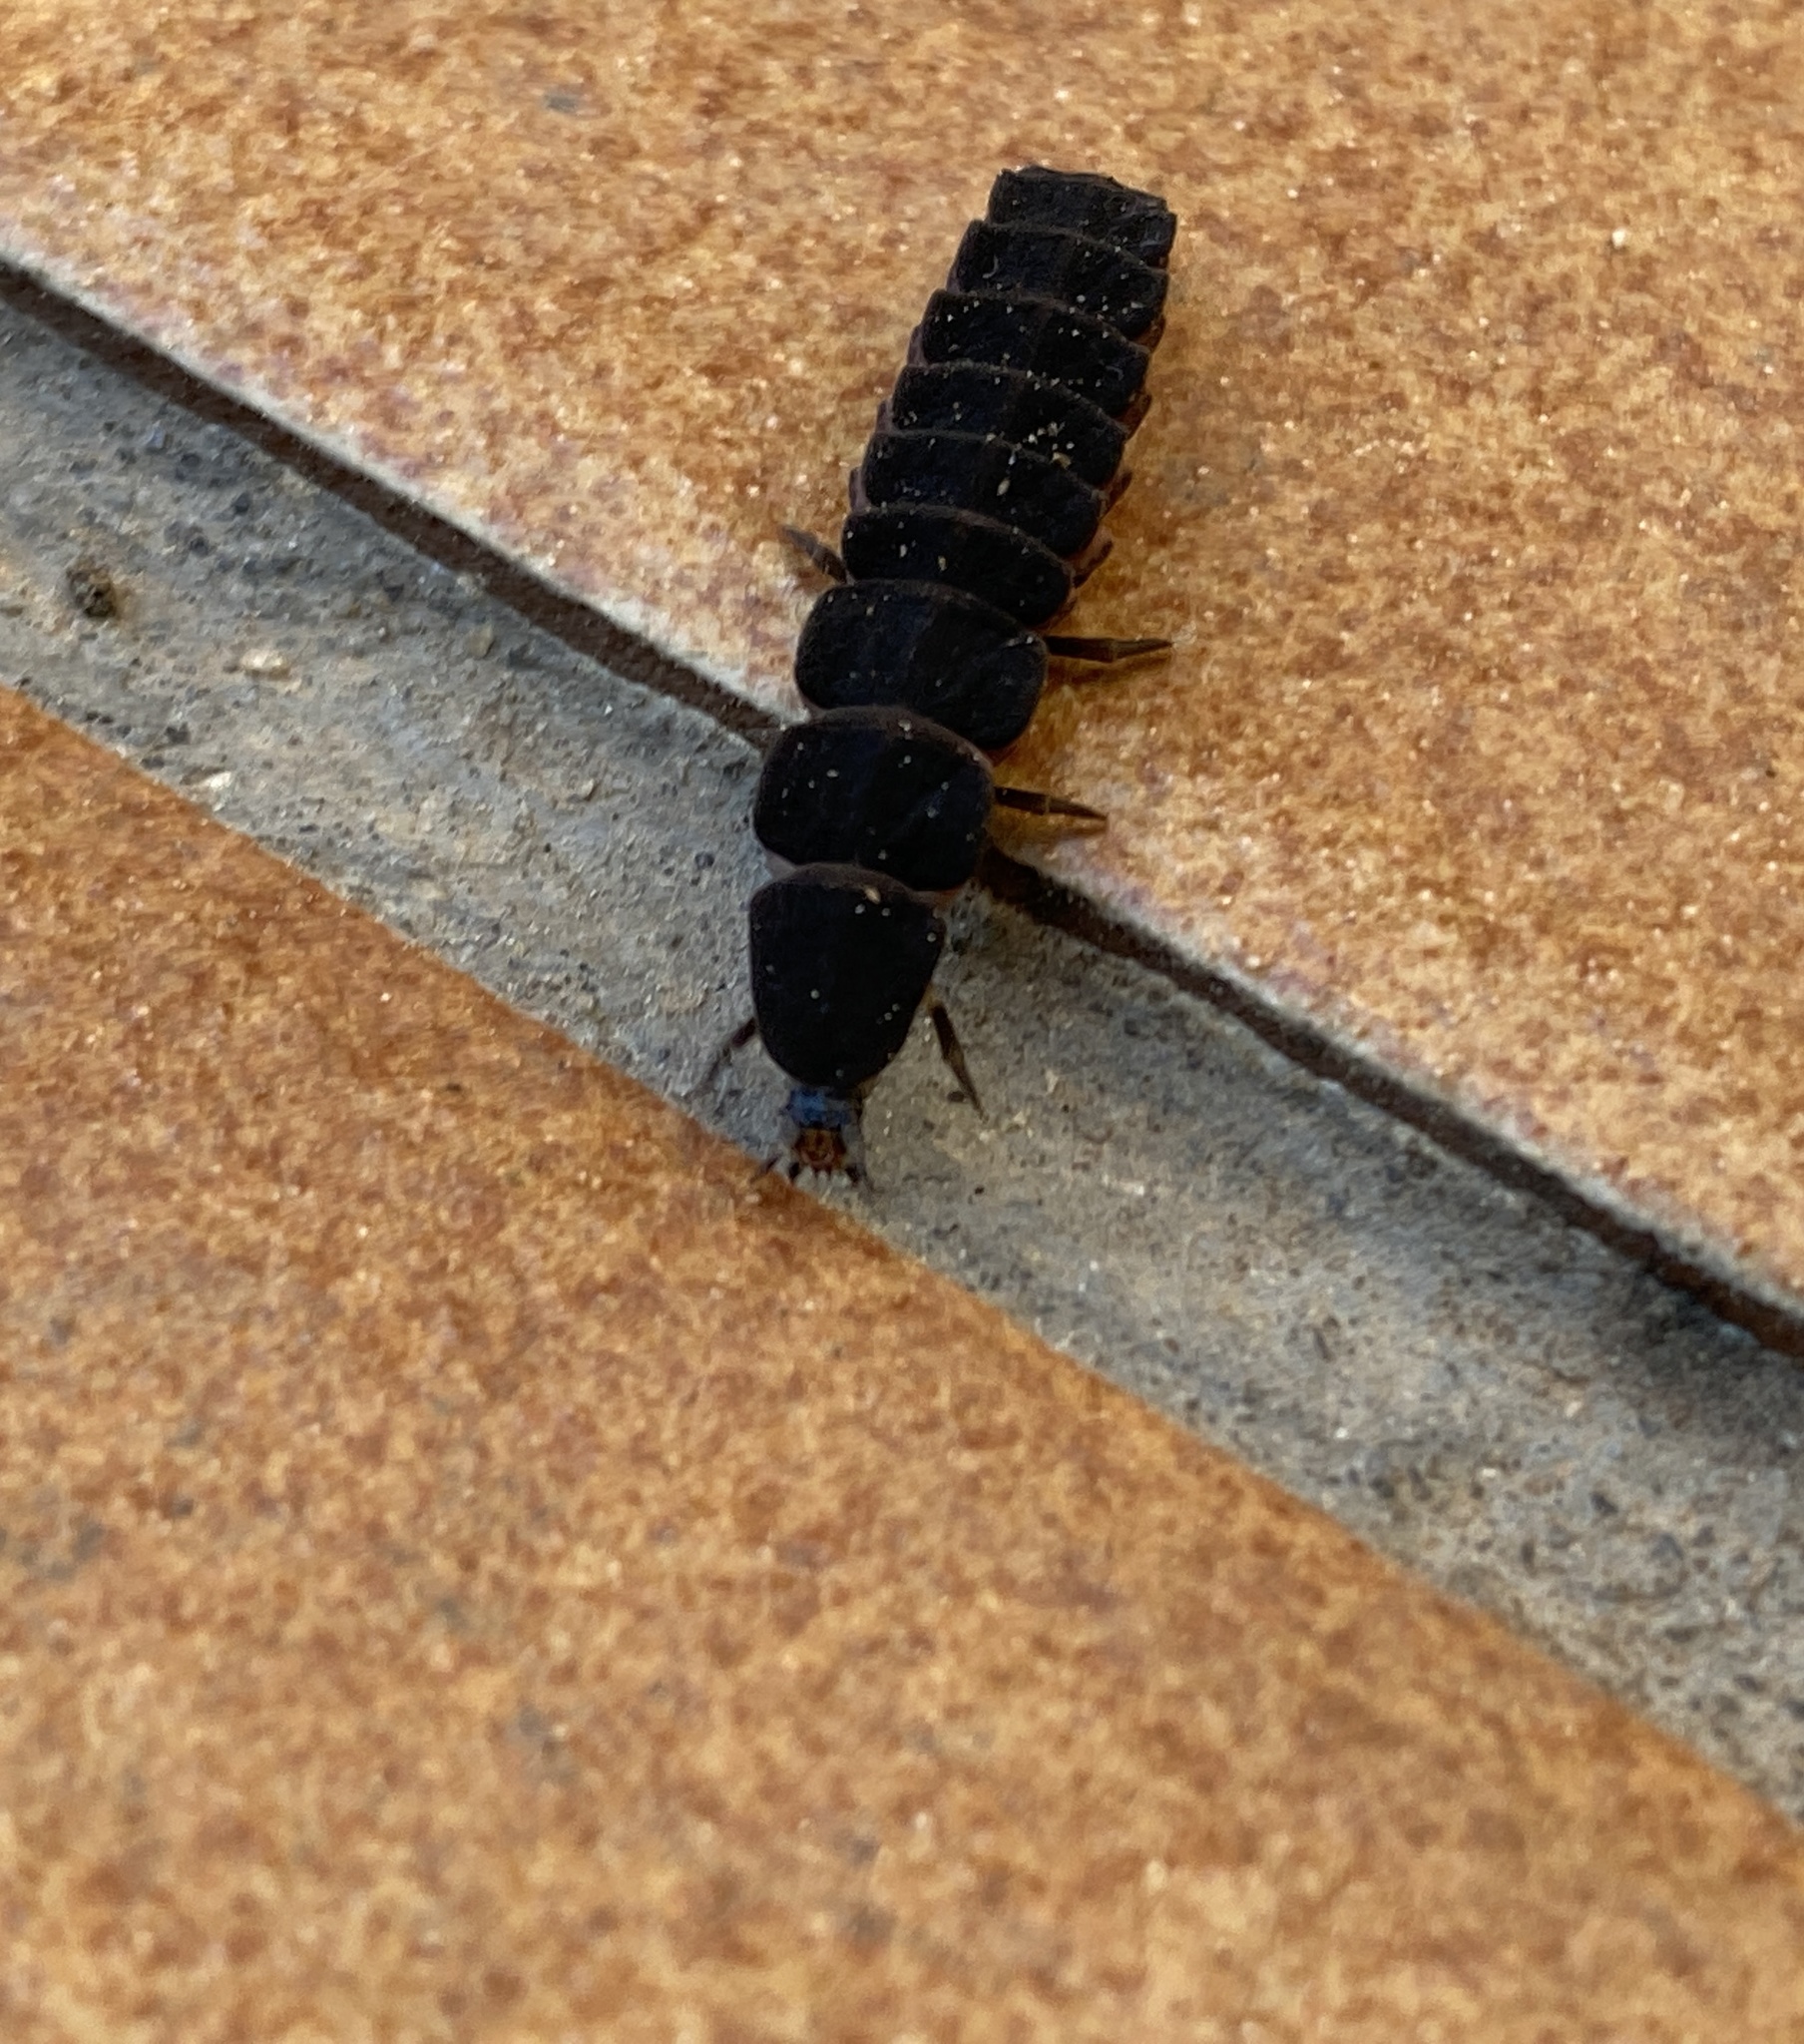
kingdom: Animalia
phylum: Arthropoda
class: Insecta
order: Coleoptera
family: Lampyridae
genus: Nyctophila
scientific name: Nyctophila reichii
